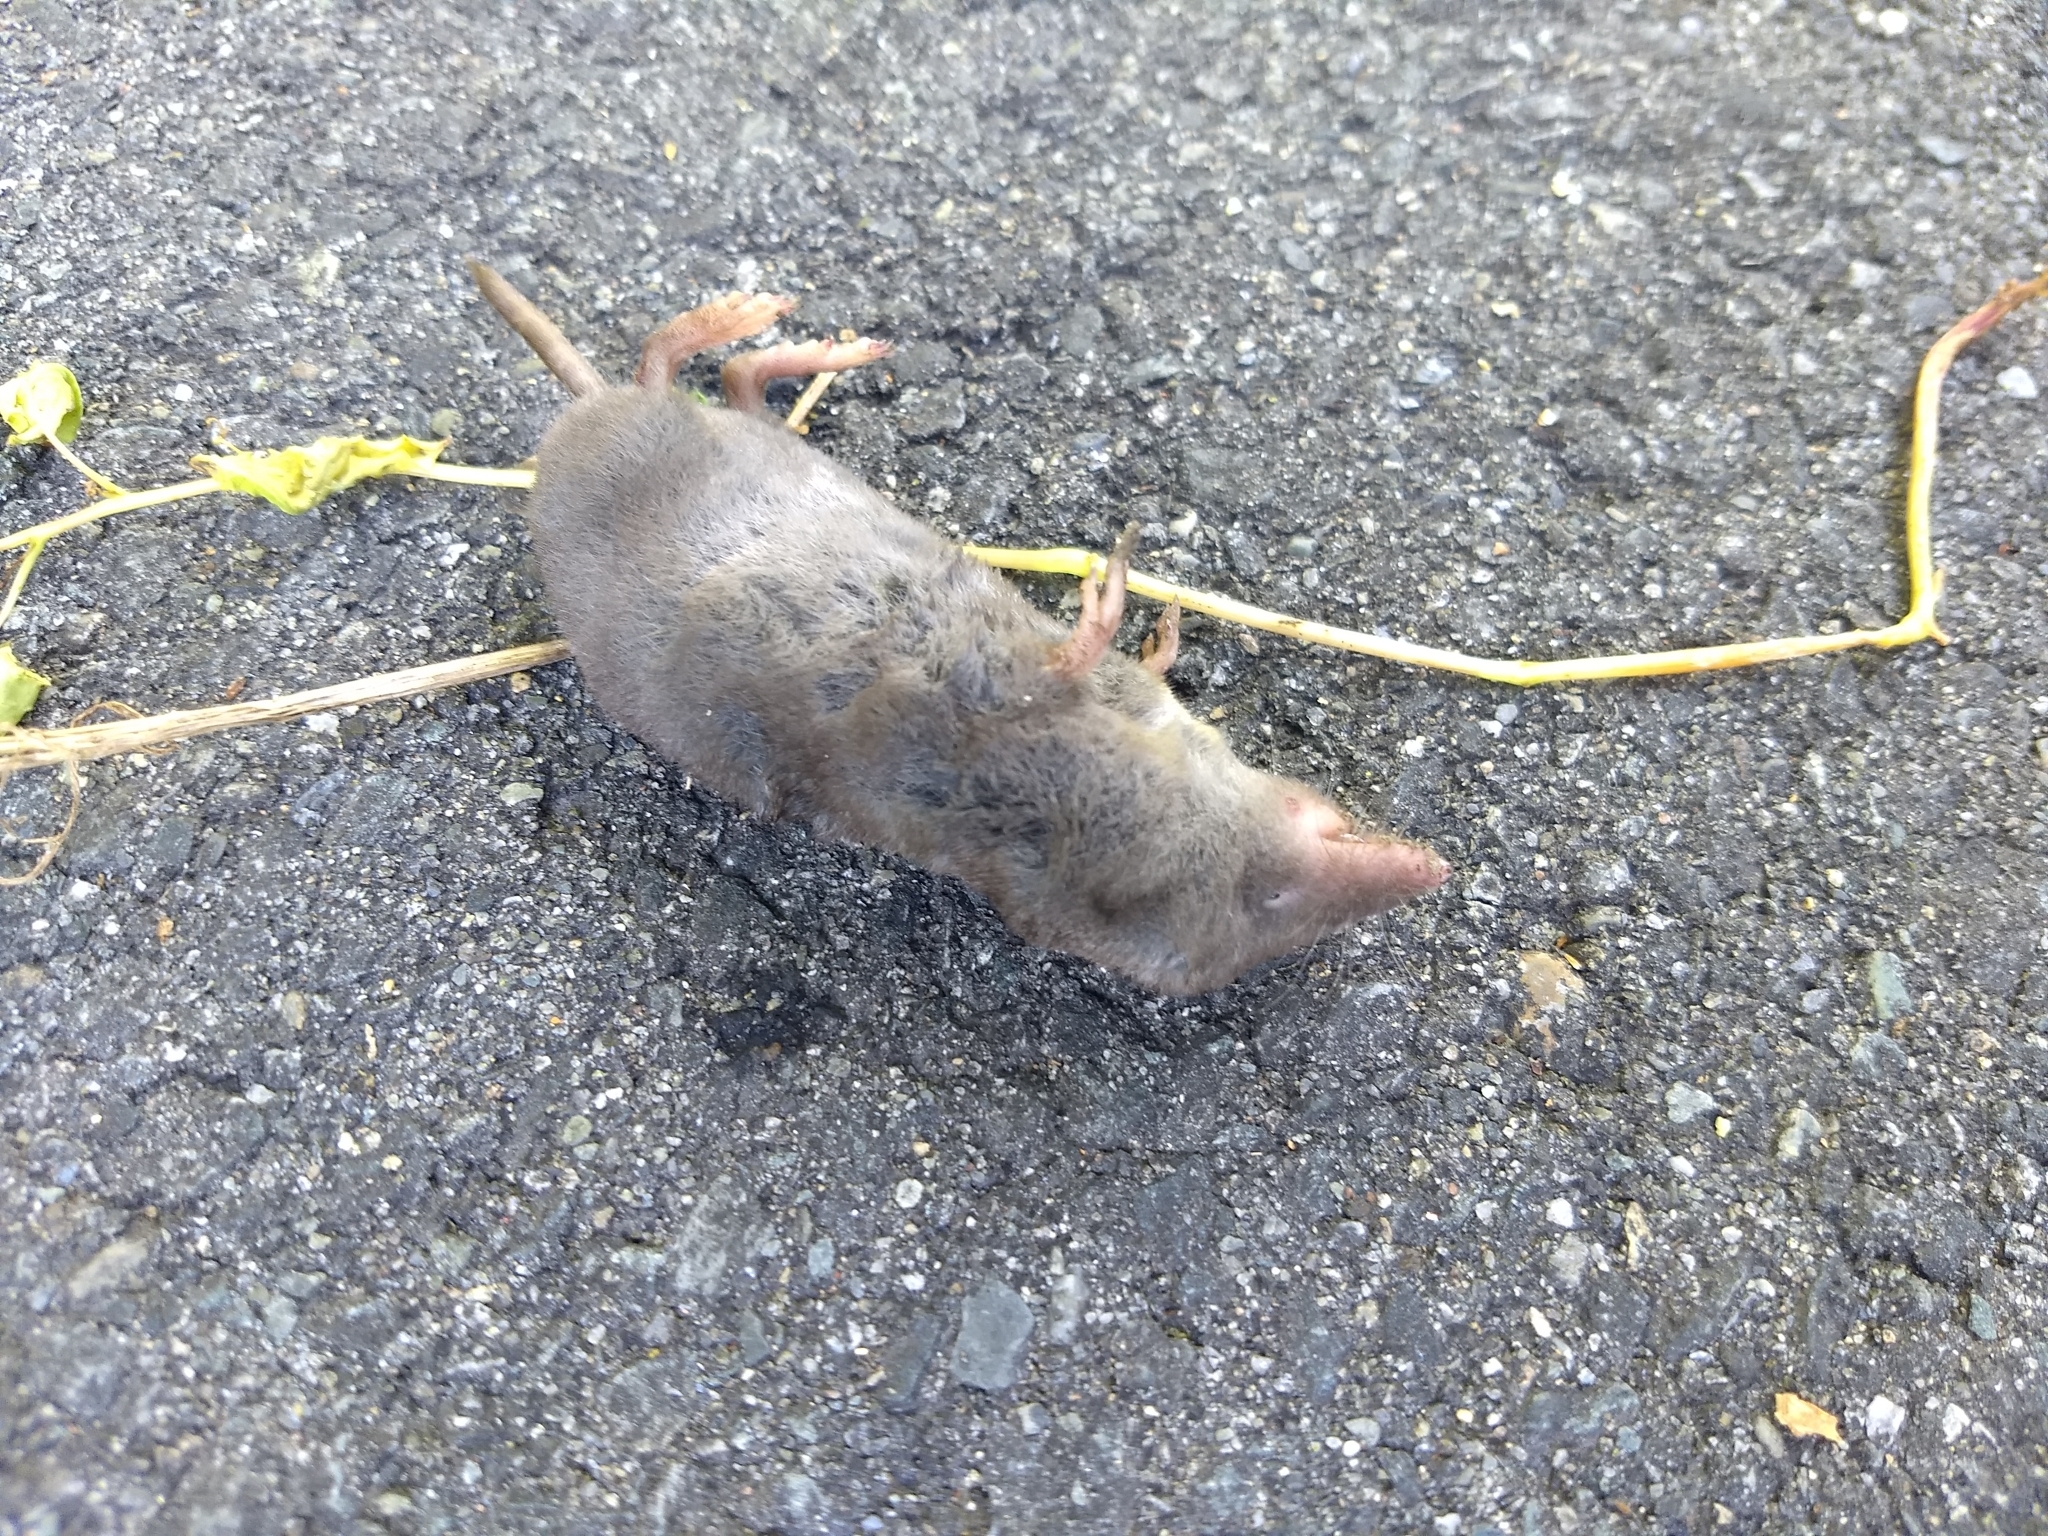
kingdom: Animalia
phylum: Chordata
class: Mammalia
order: Soricomorpha
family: Soricidae
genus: Blarina
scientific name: Blarina brevicauda
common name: Northern short-tailed shrew
